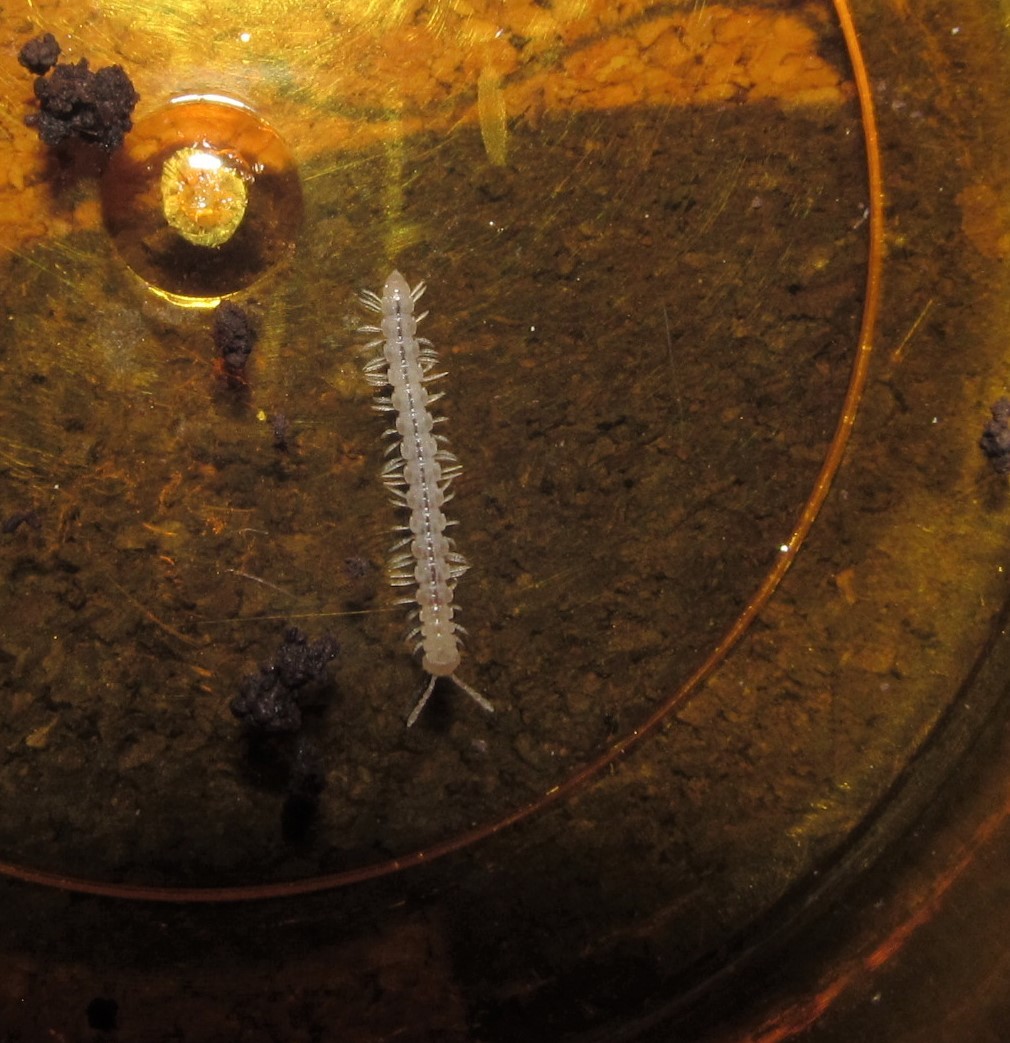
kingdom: Animalia
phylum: Arthropoda
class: Diplopoda
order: Polydesmida
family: Macrosternodesmidae
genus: Chaetaspis
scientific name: Chaetaspis ohionis
